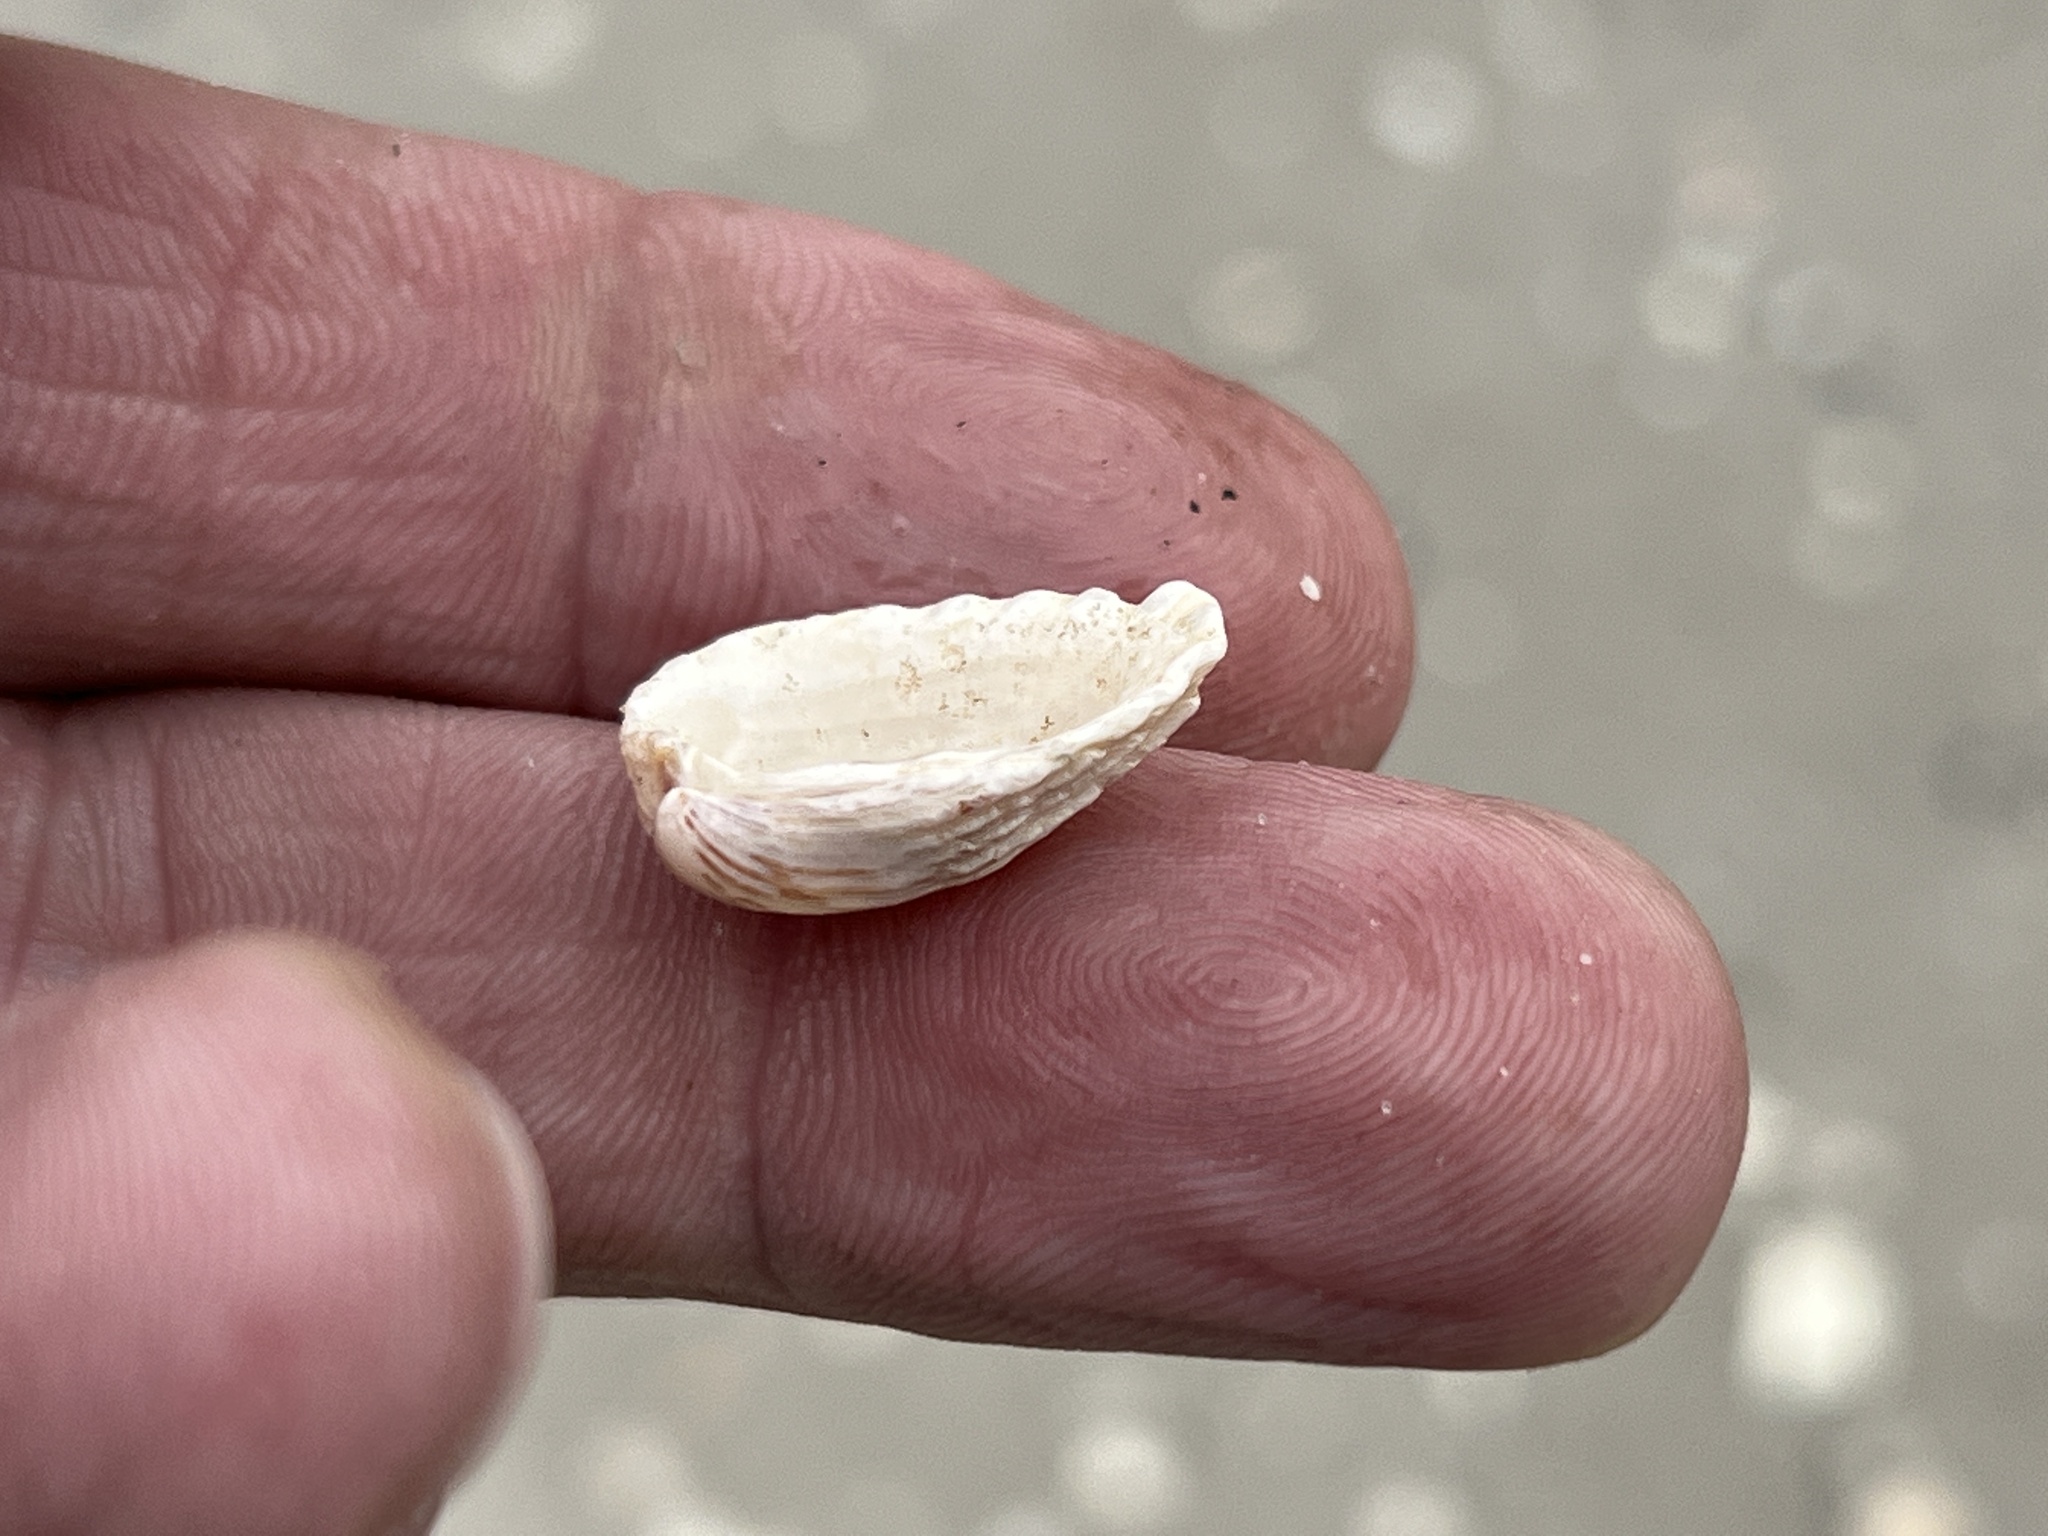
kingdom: Animalia
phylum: Mollusca
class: Bivalvia
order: Carditida
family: Carditidae
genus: Cardites
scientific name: Cardites floridanus
